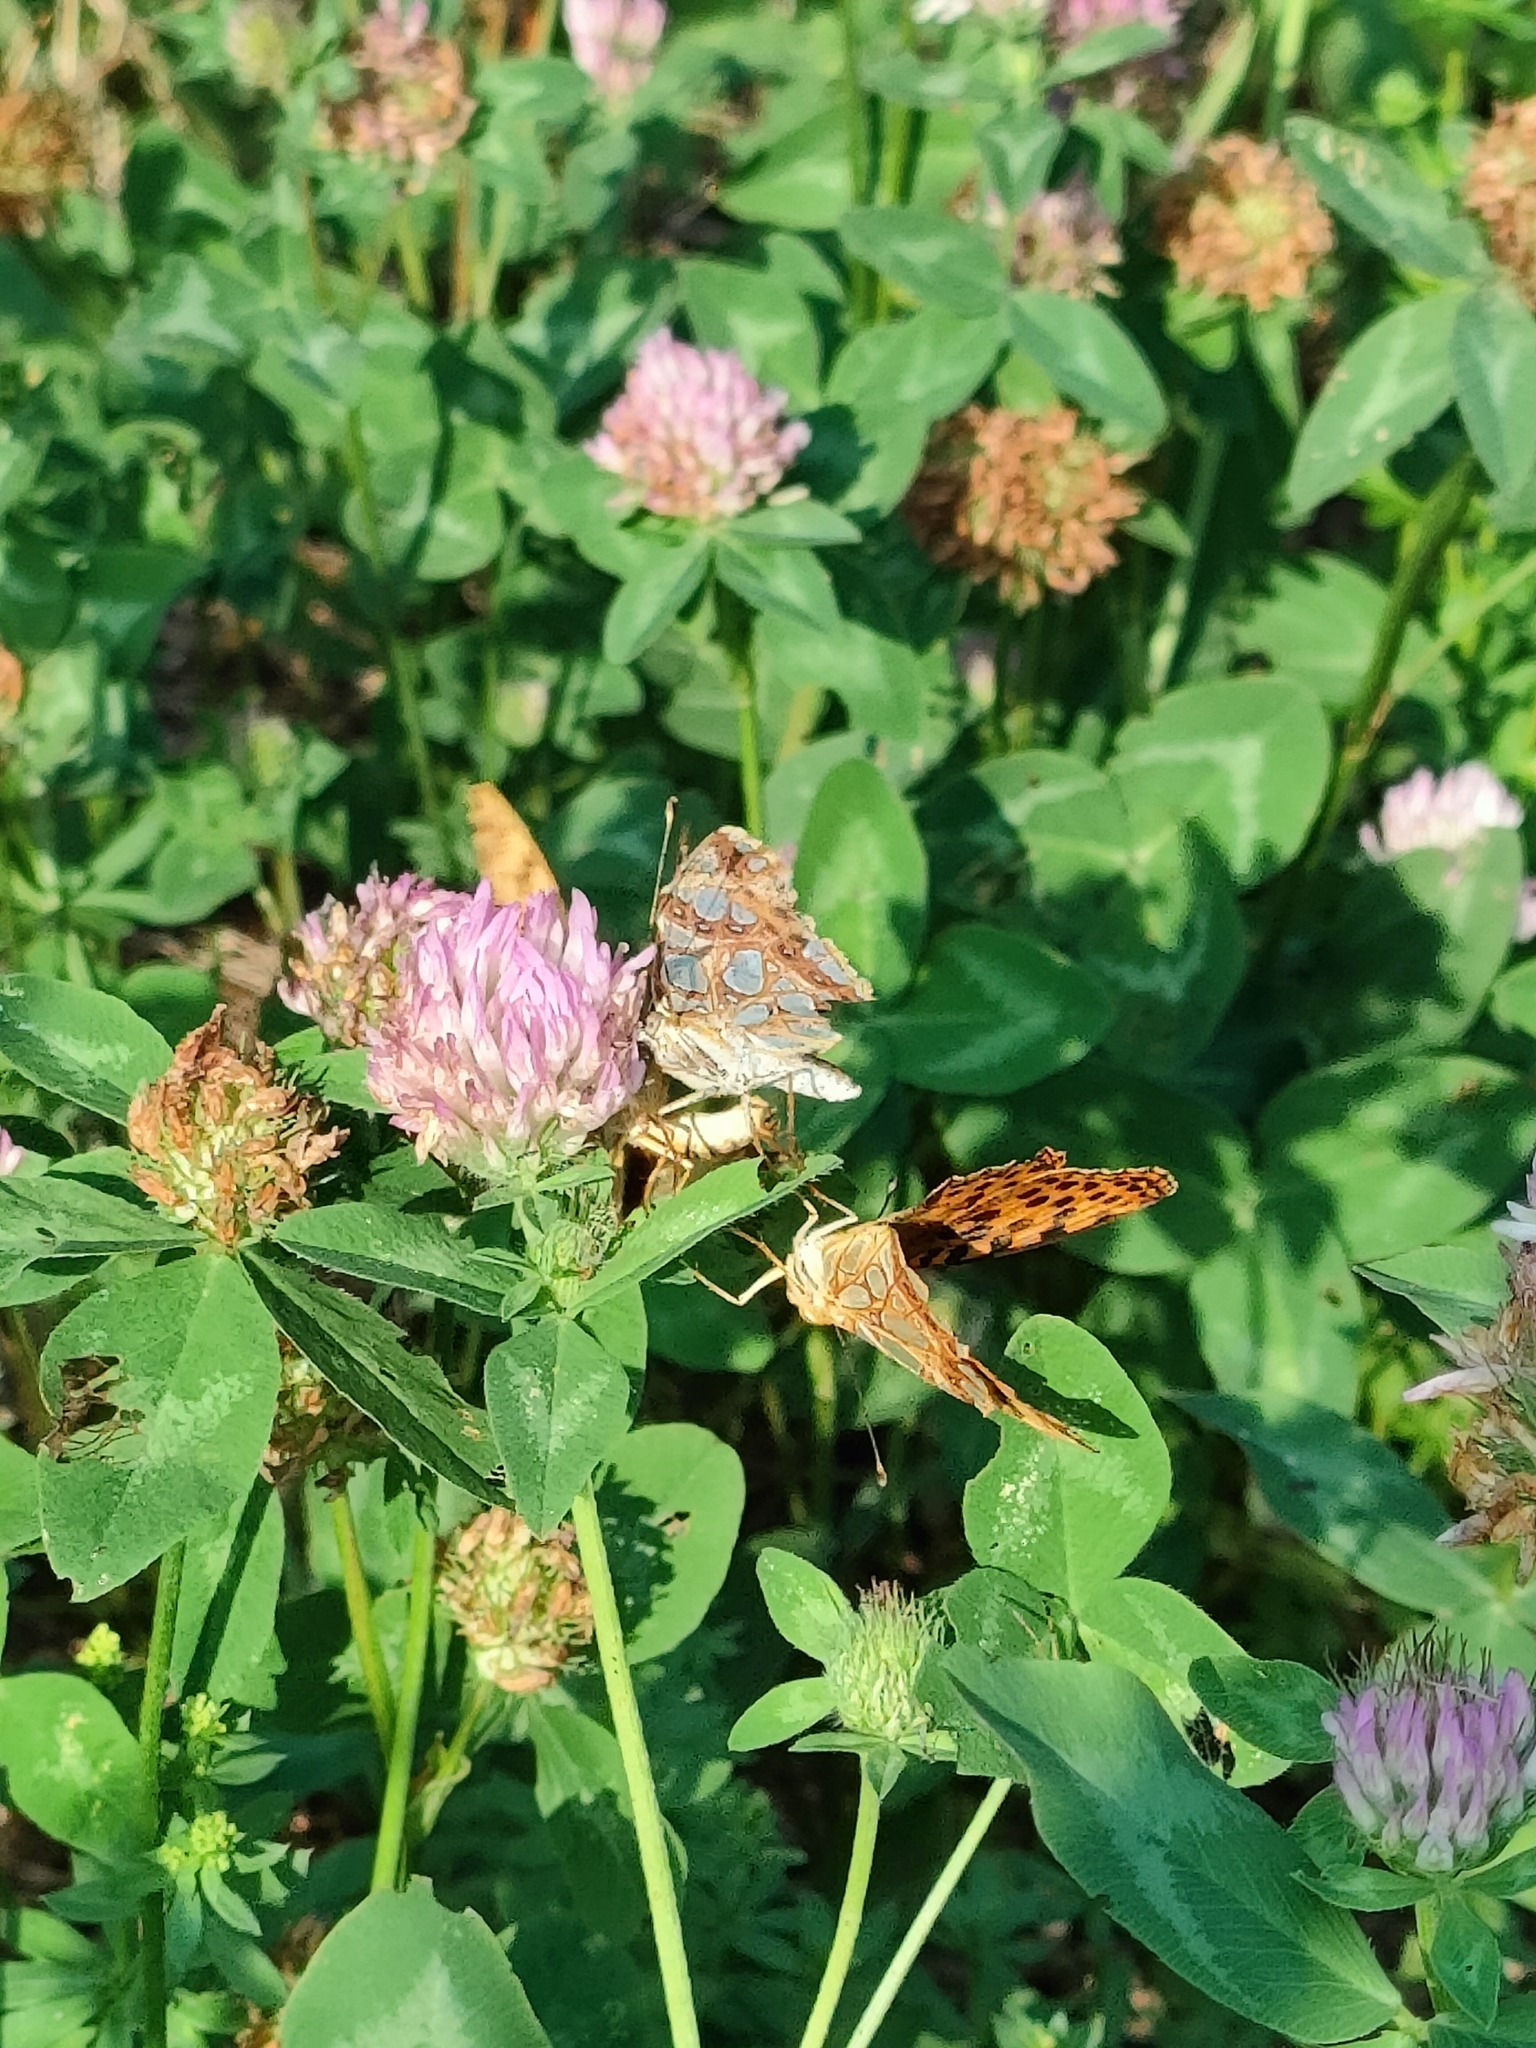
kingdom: Animalia
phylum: Arthropoda
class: Insecta
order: Lepidoptera
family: Nymphalidae
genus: Issoria
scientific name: Issoria lathonia
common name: Queen of spain fritillary
